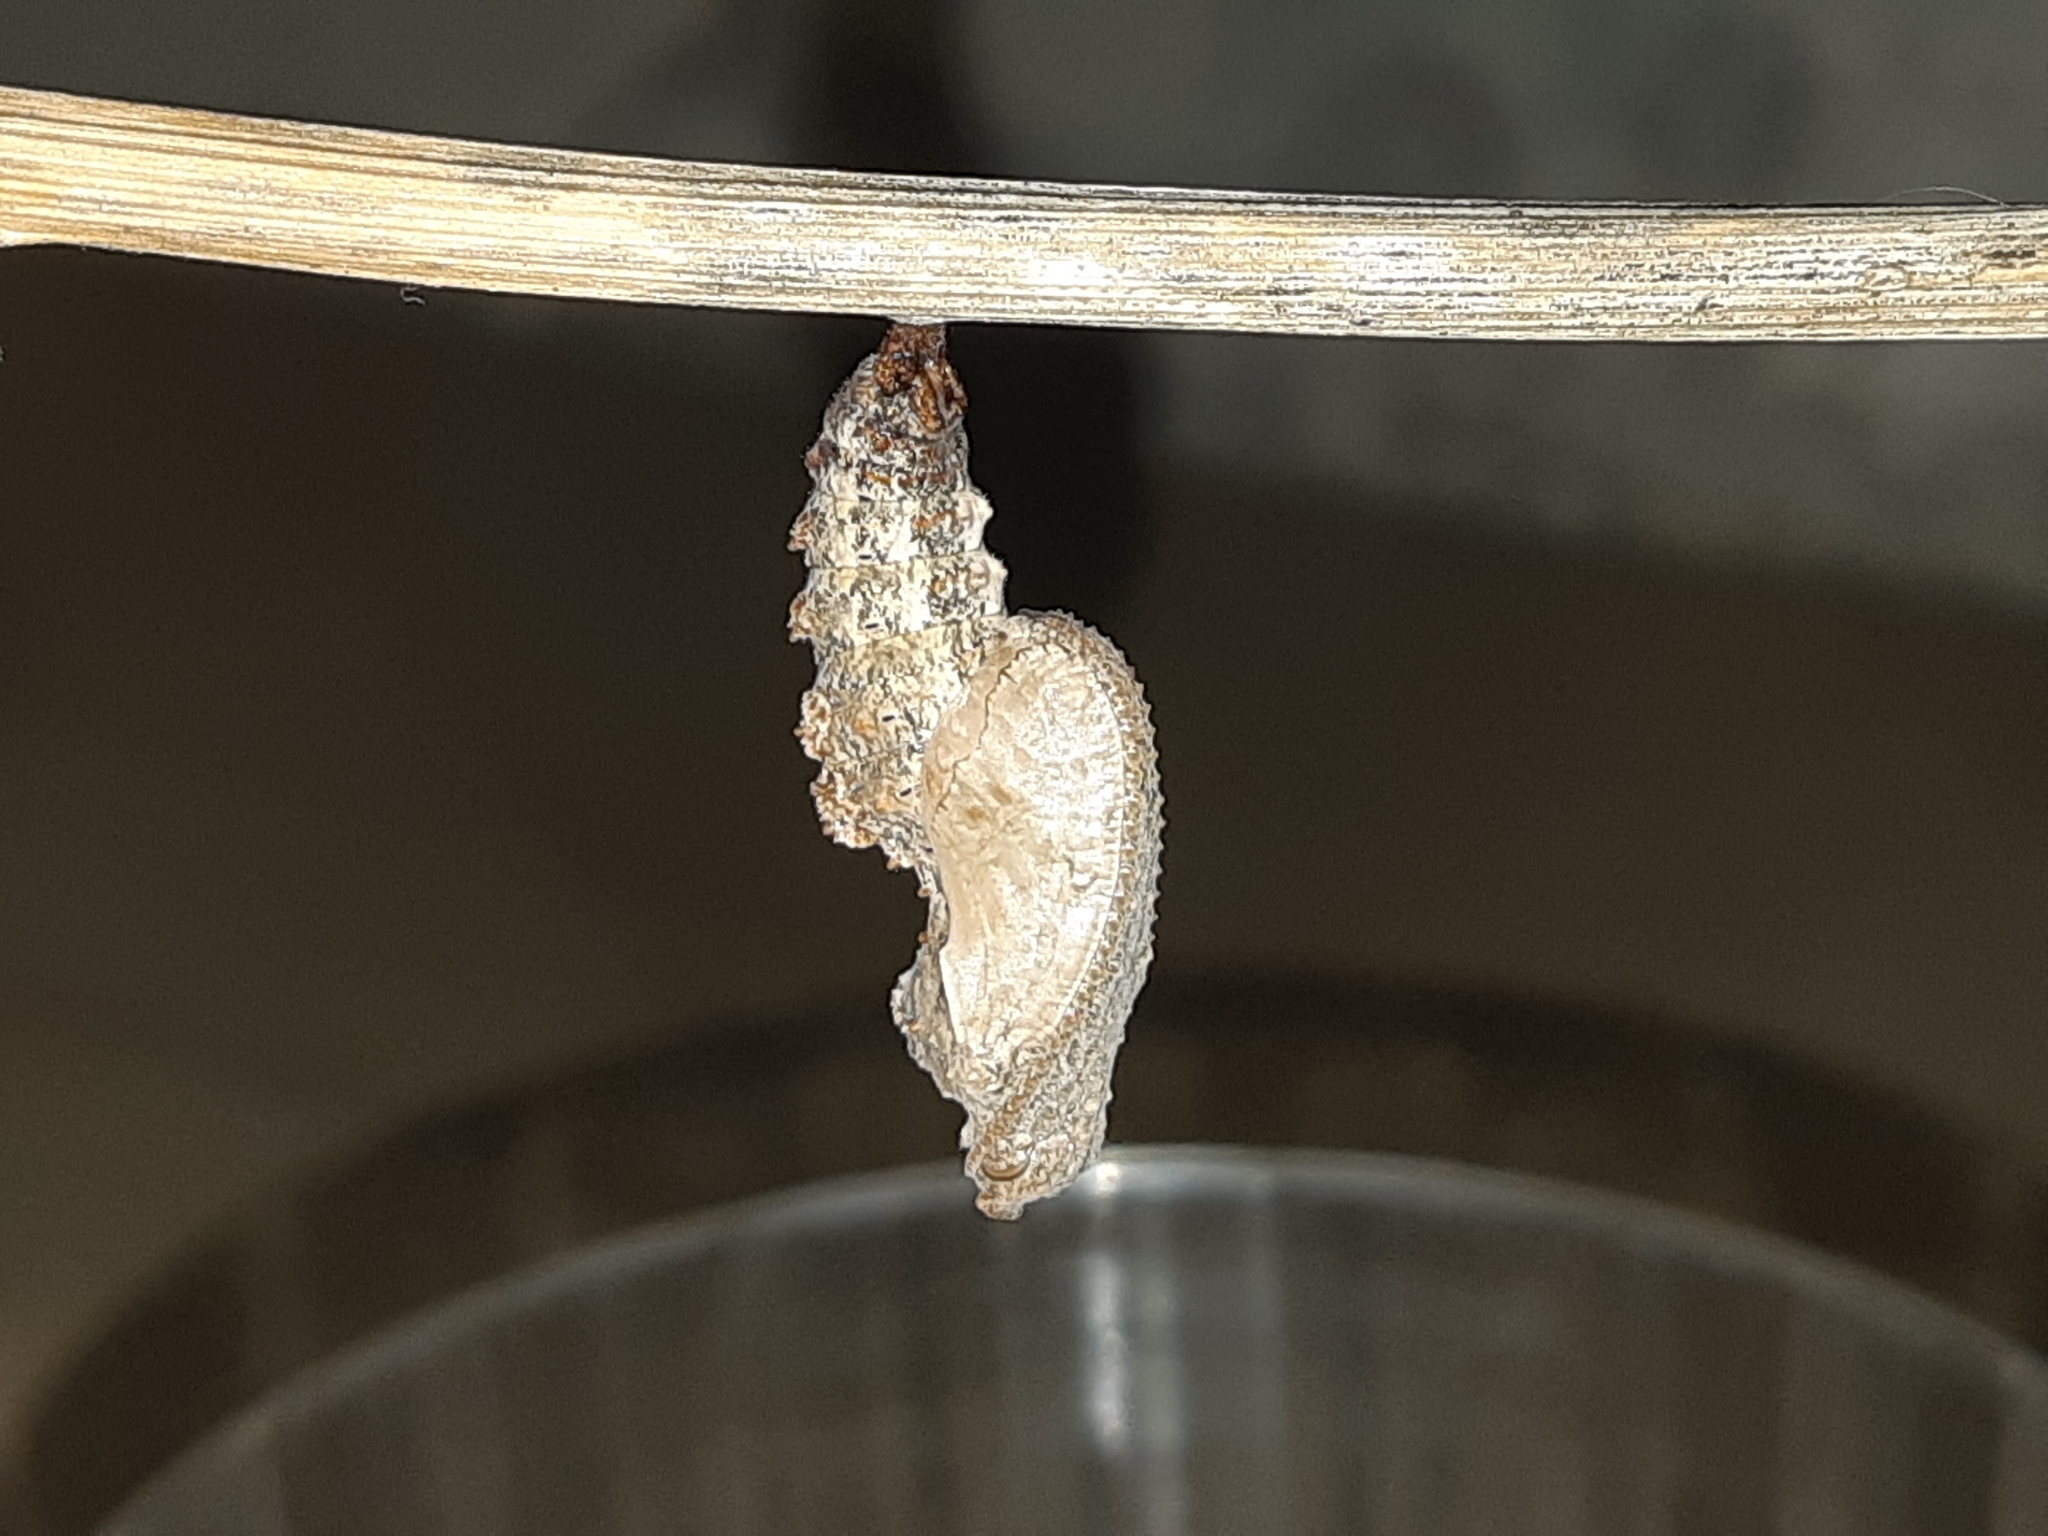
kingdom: Animalia
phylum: Arthropoda
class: Insecta
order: Lepidoptera
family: Nymphalidae
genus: Dione
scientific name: Dione juno
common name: Juno silverspot
